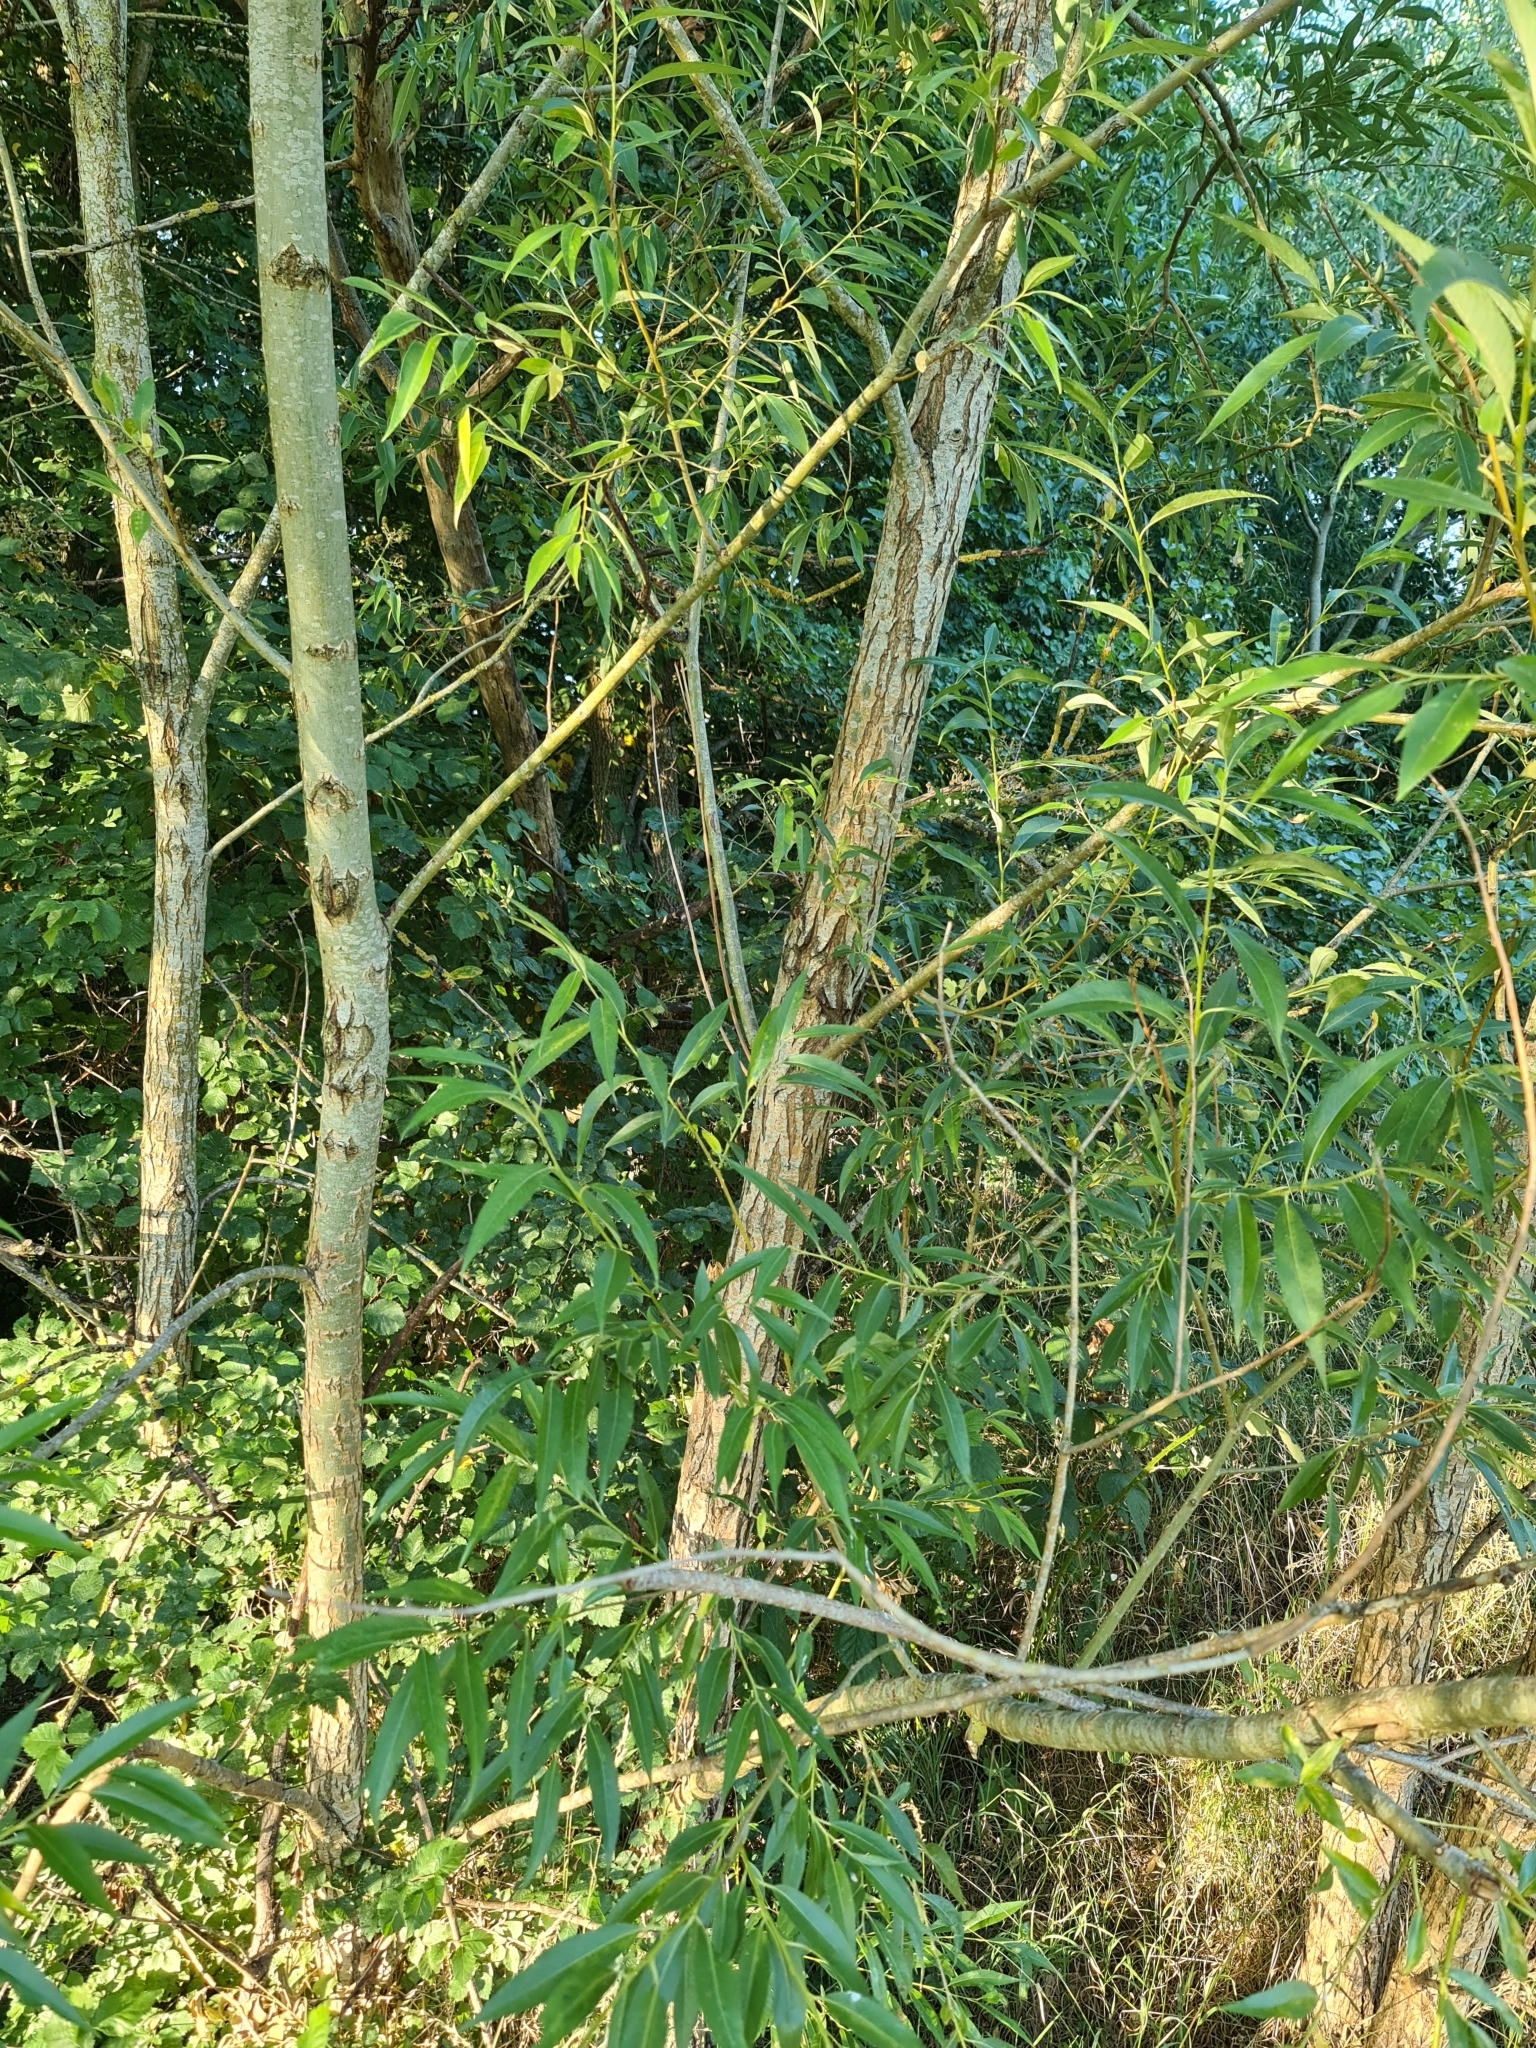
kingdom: Plantae
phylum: Tracheophyta
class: Magnoliopsida
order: Malpighiales
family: Salicaceae
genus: Salix
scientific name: Salix alba
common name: White willow
